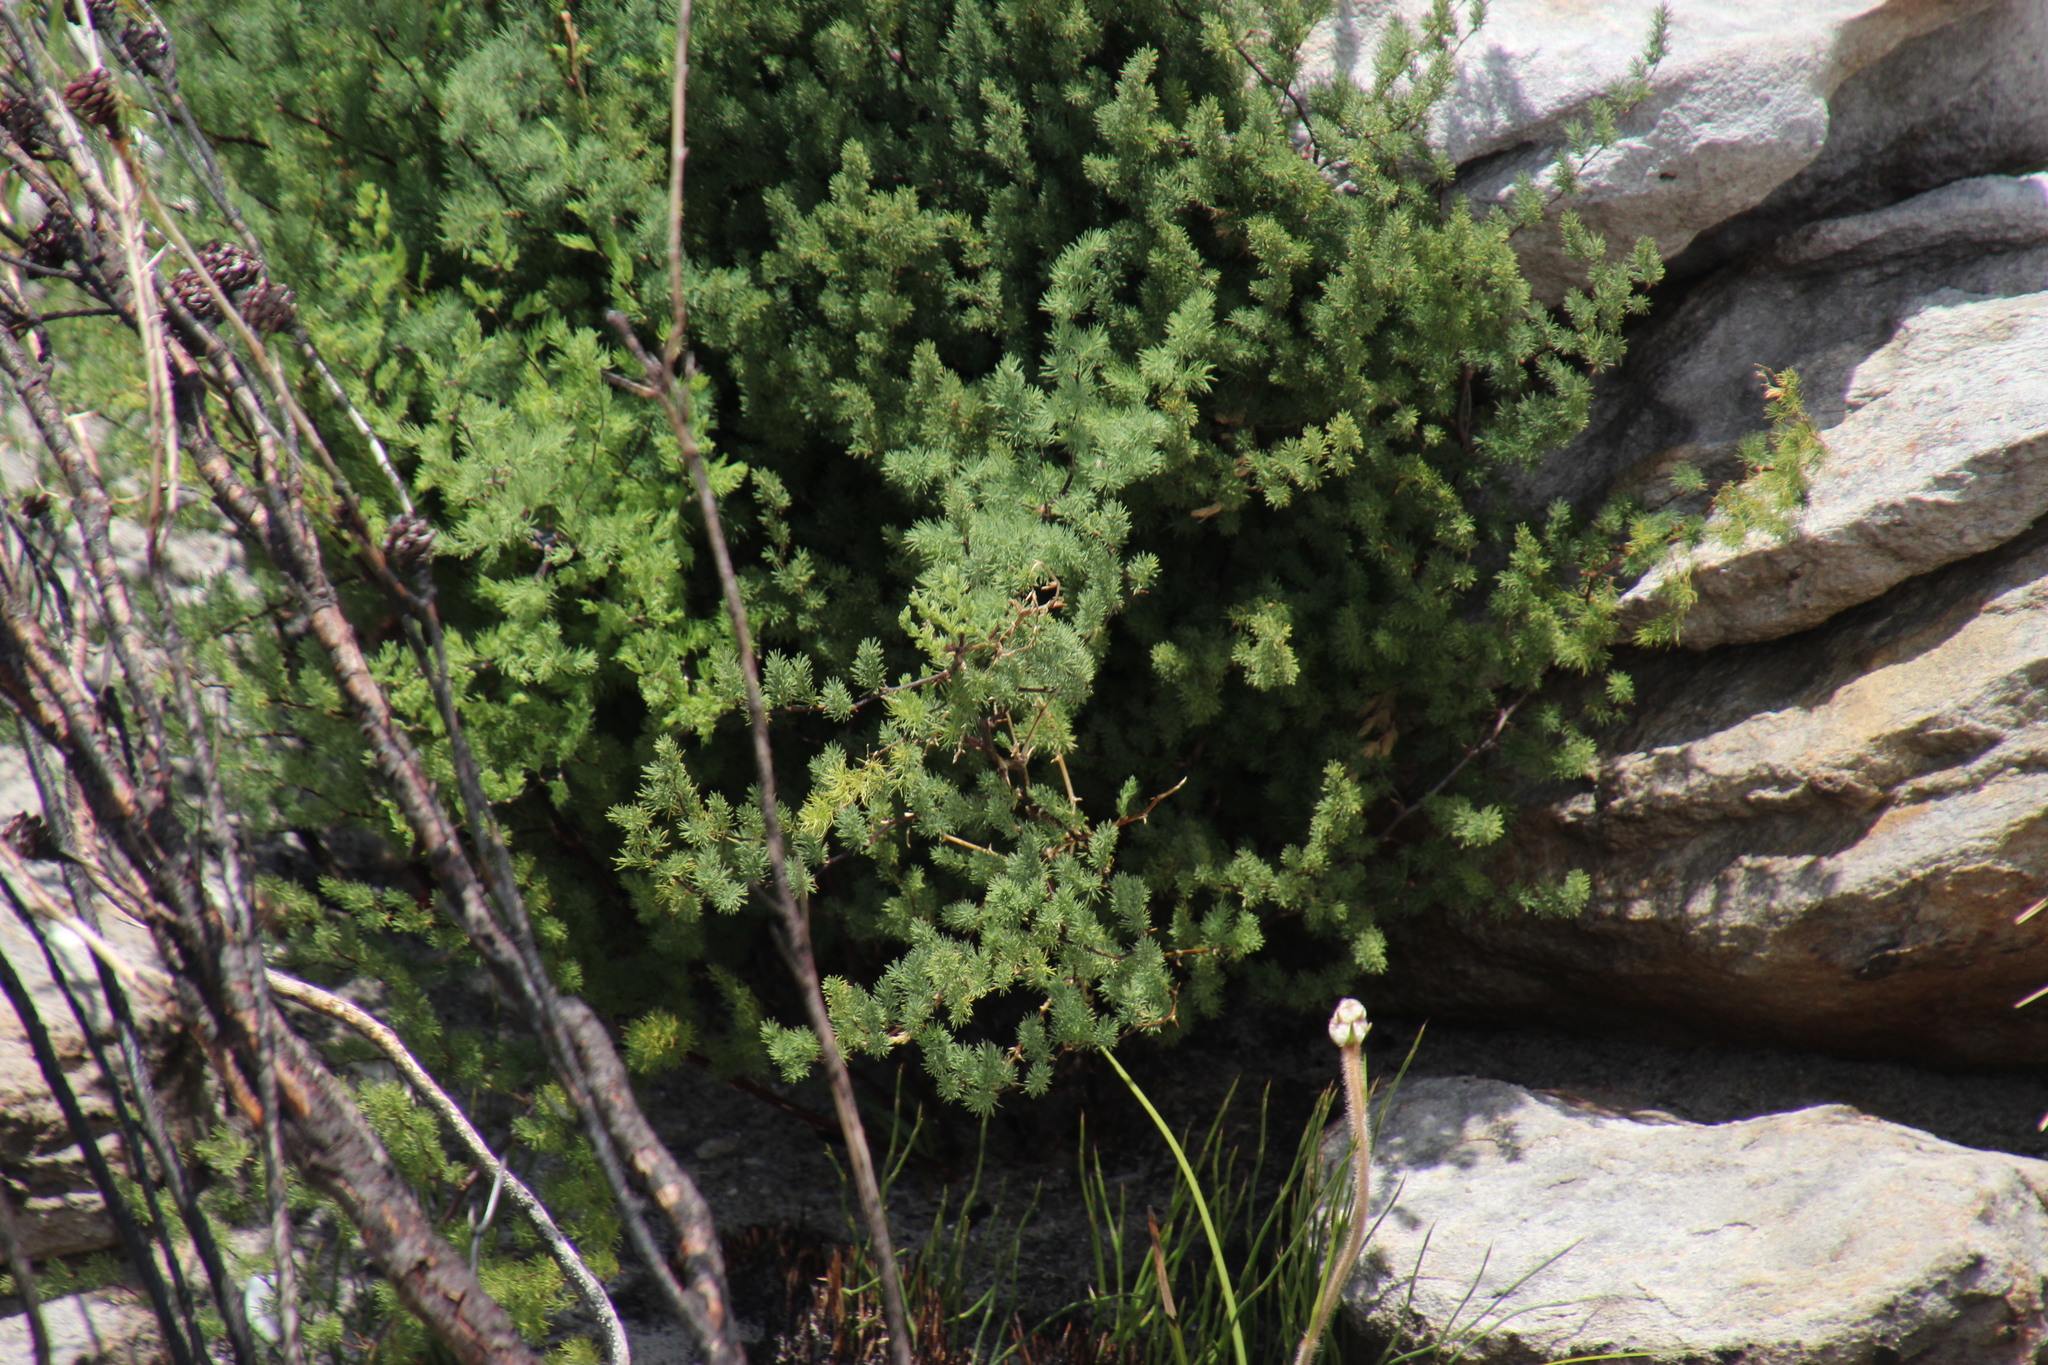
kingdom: Plantae
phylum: Tracheophyta
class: Liliopsida
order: Asparagales
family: Asparagaceae
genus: Asparagus
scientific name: Asparagus rubicundus
